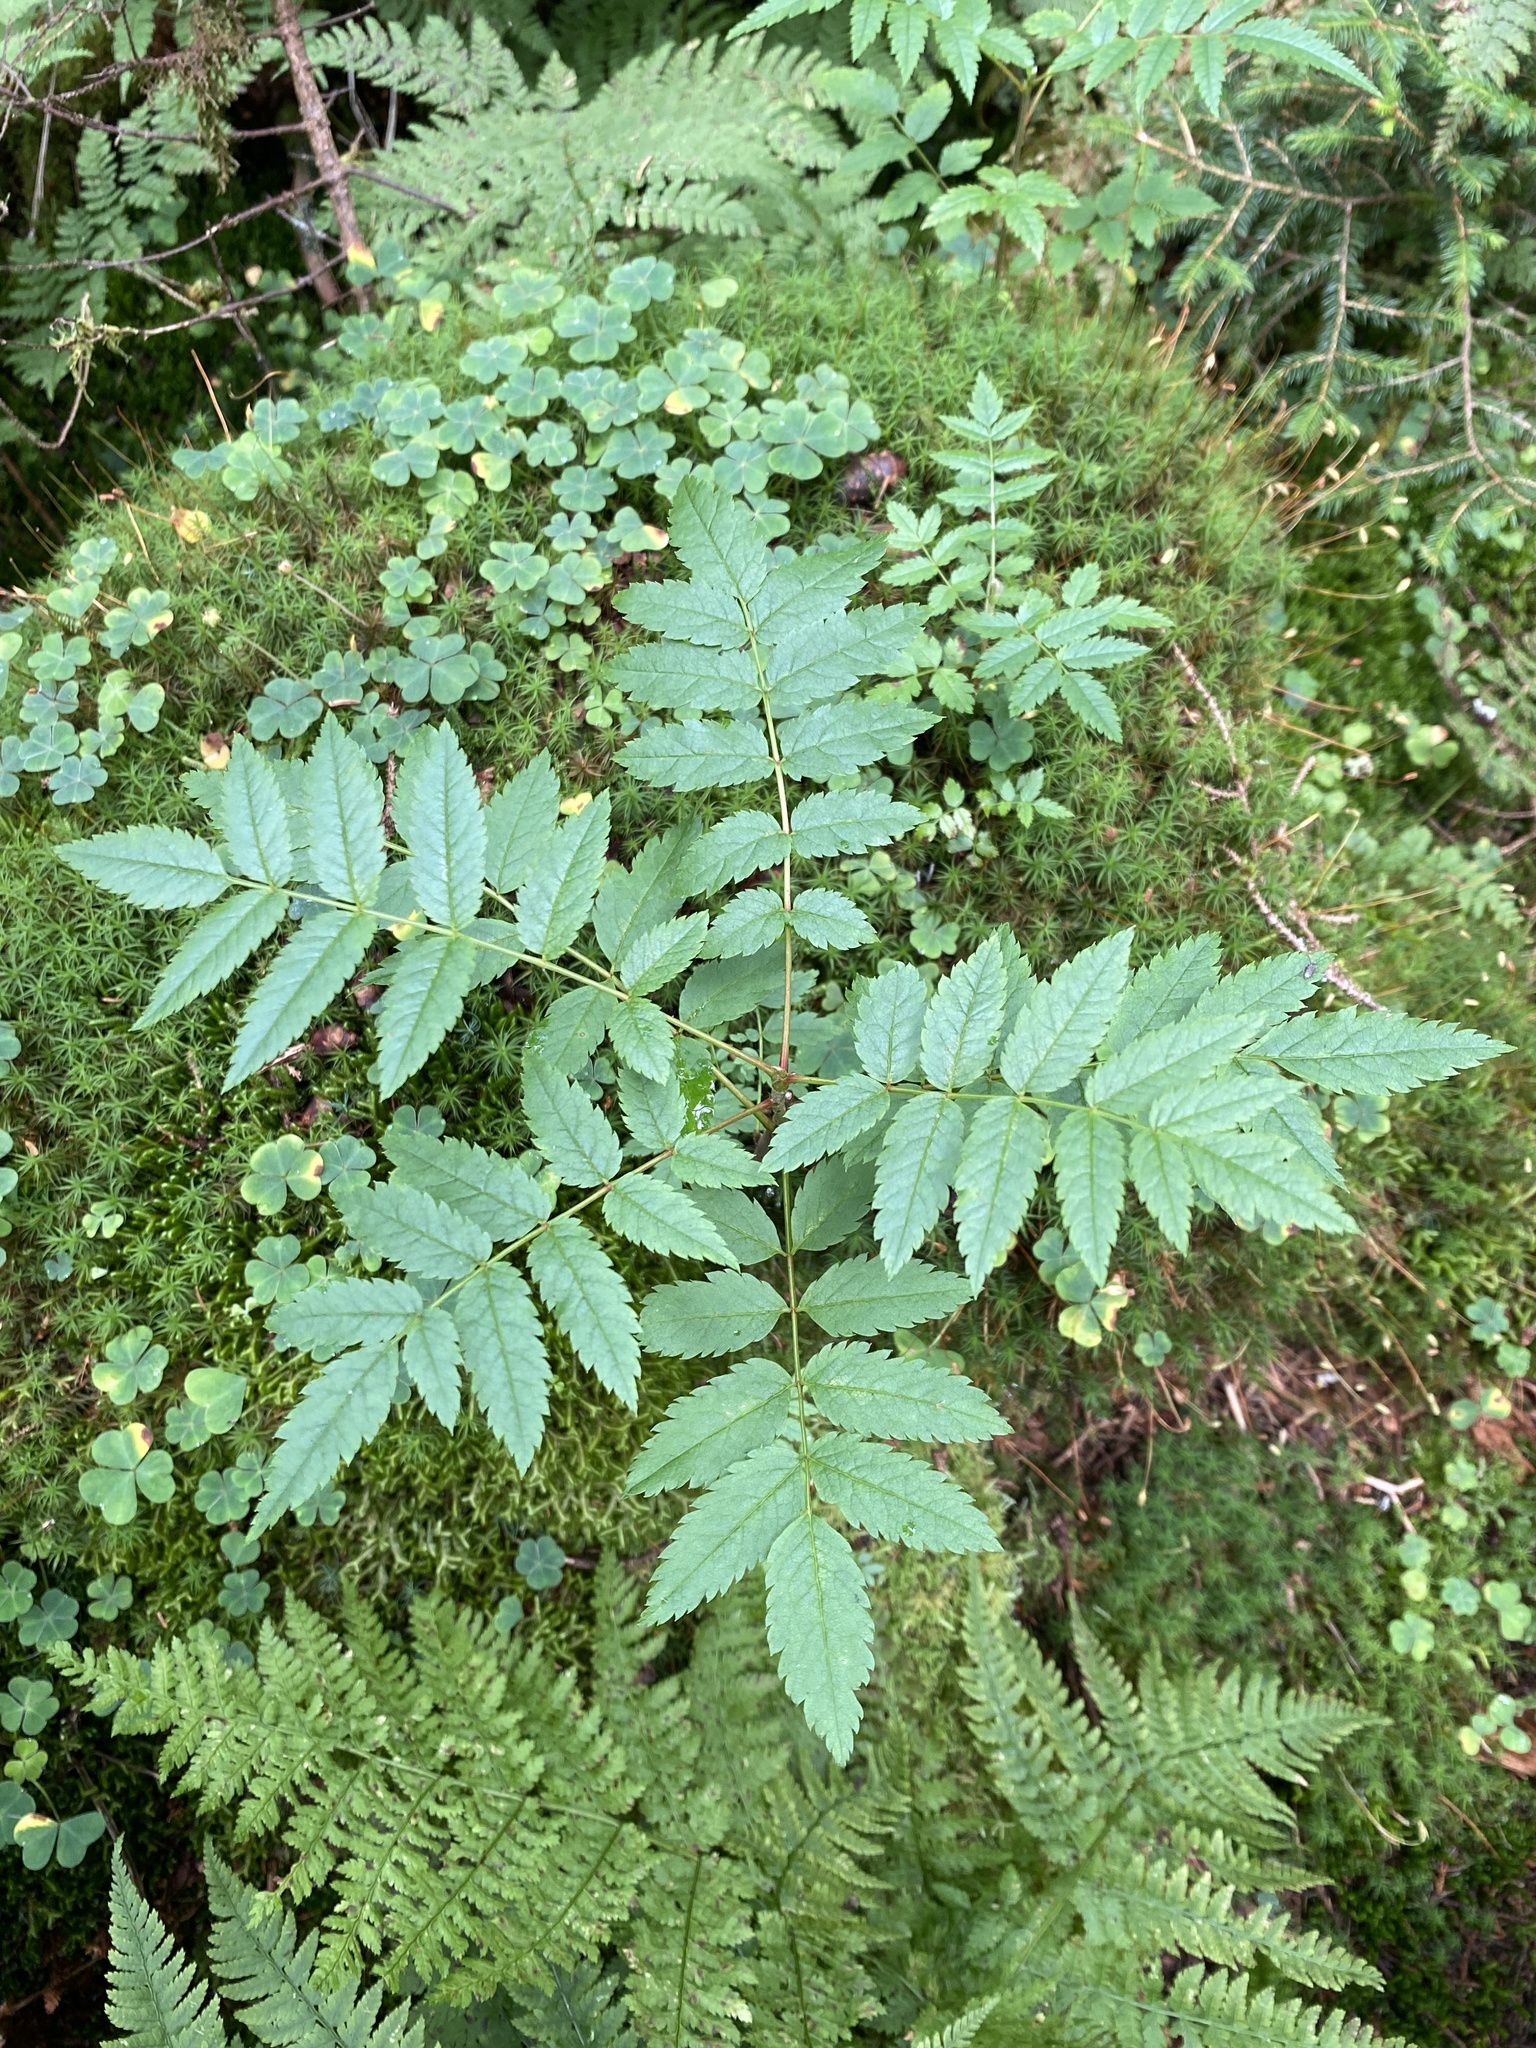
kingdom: Plantae
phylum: Tracheophyta
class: Magnoliopsida
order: Rosales
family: Rosaceae
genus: Sorbus
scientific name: Sorbus americana
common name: American mountain-ash
